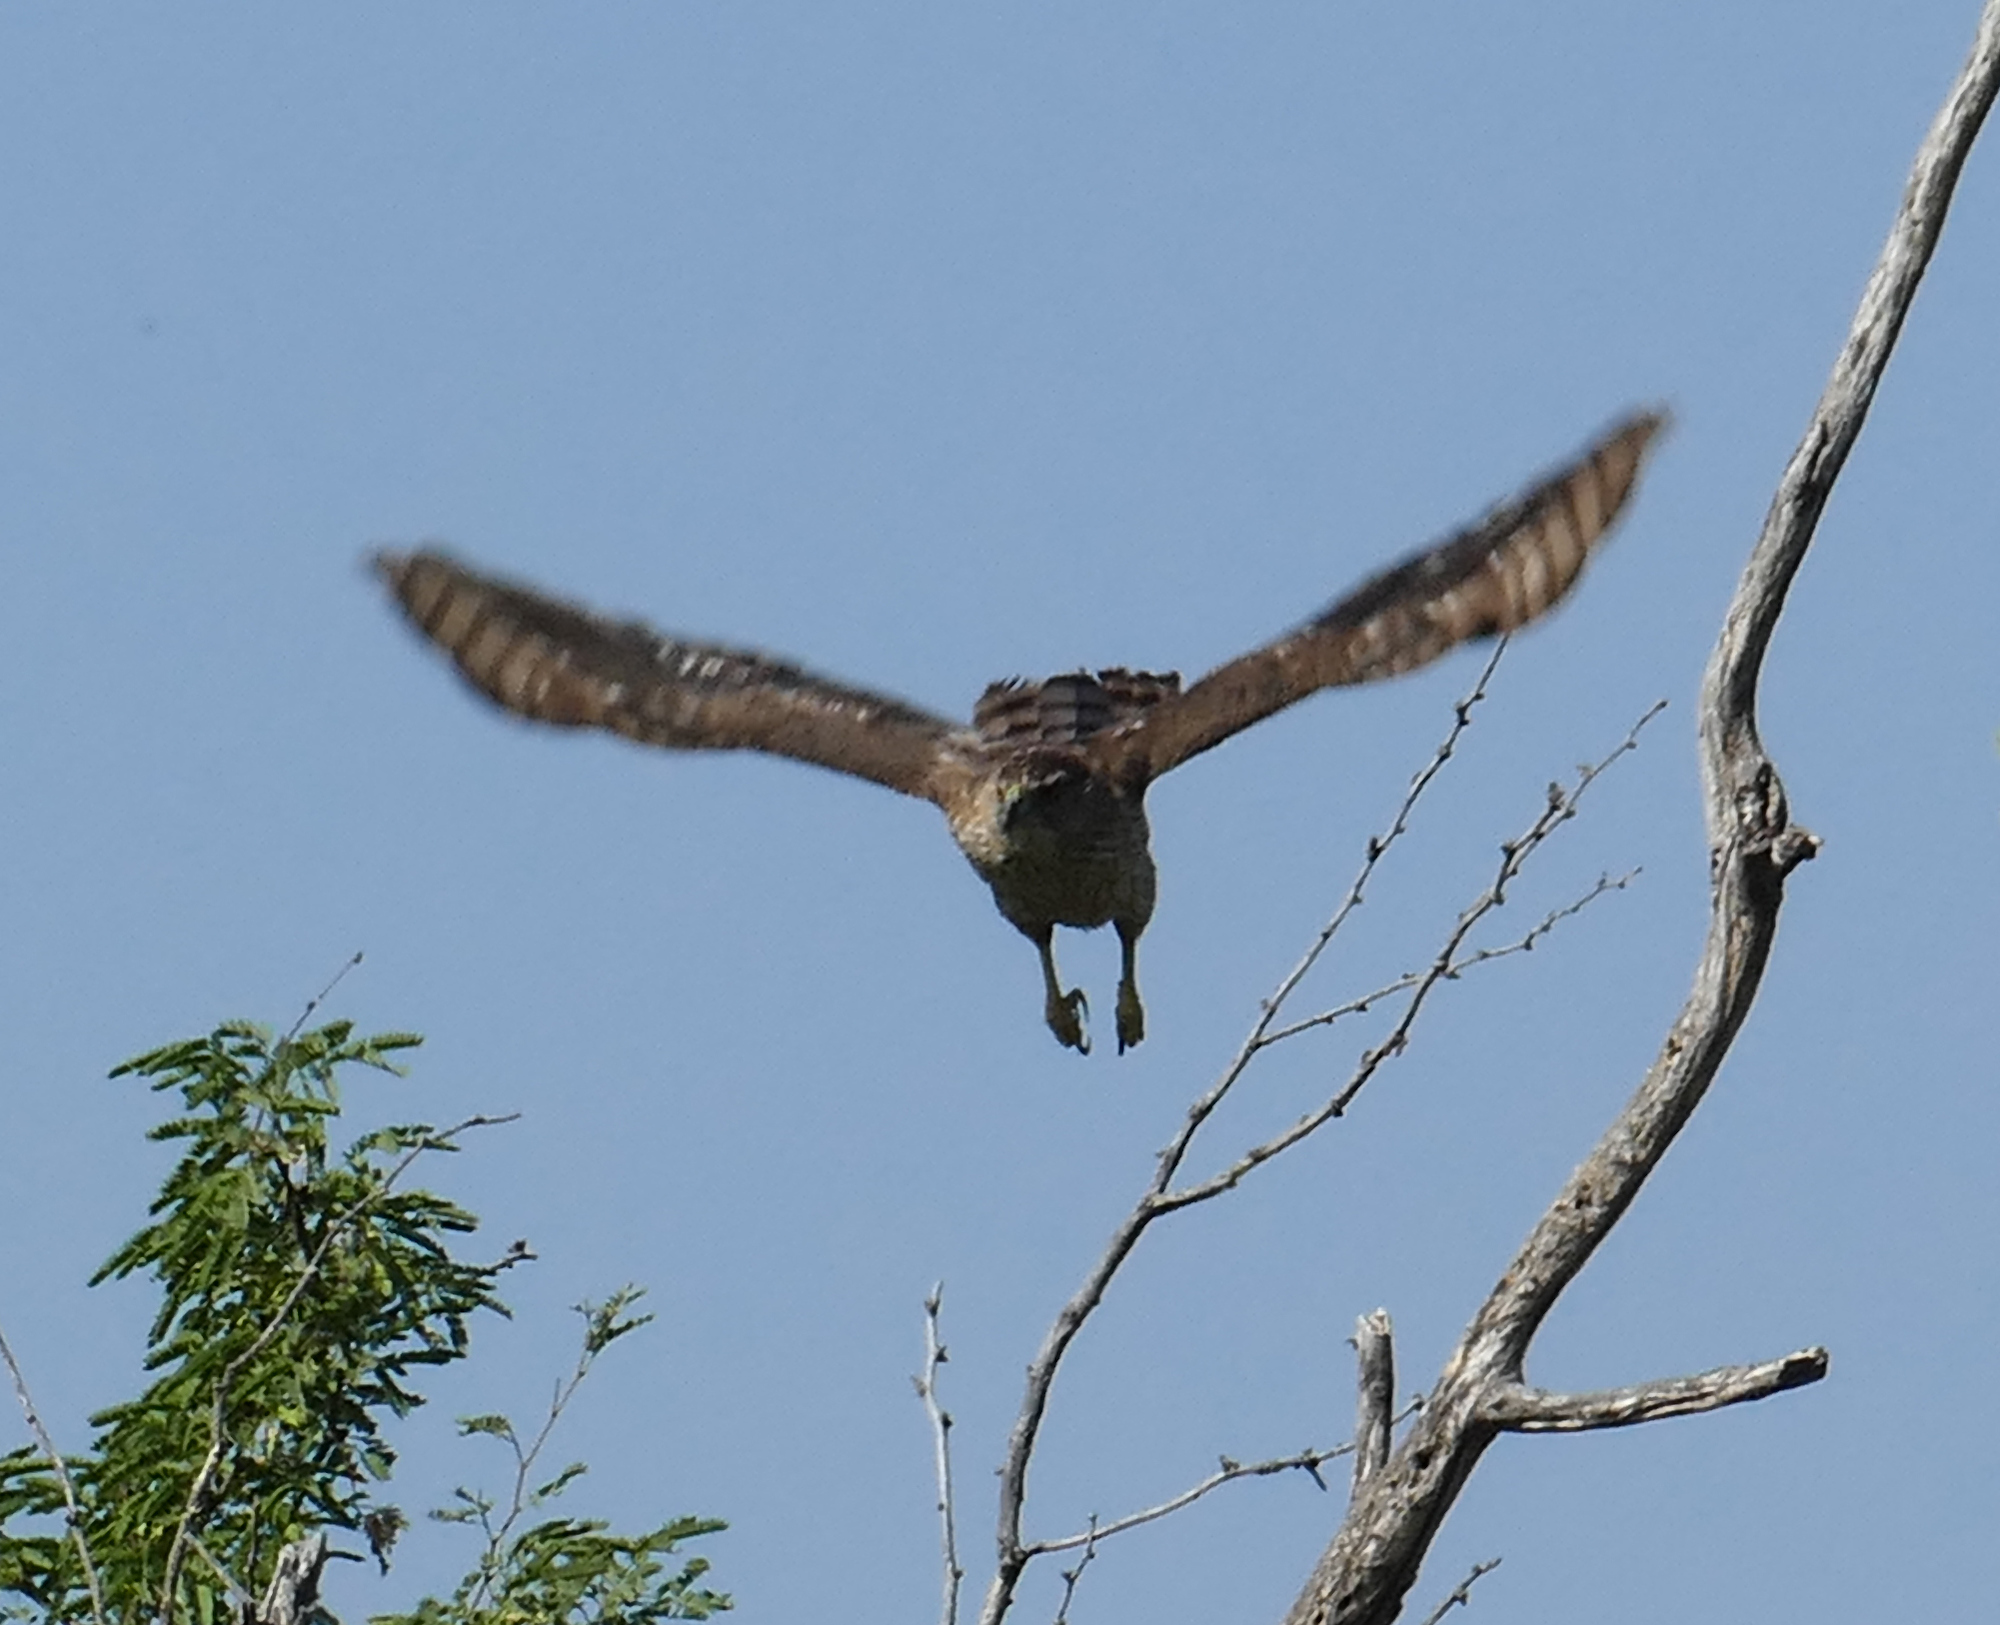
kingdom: Animalia
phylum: Chordata
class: Aves
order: Accipitriformes
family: Accipitridae
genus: Accipiter
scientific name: Accipiter cooperii
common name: Cooper's hawk
